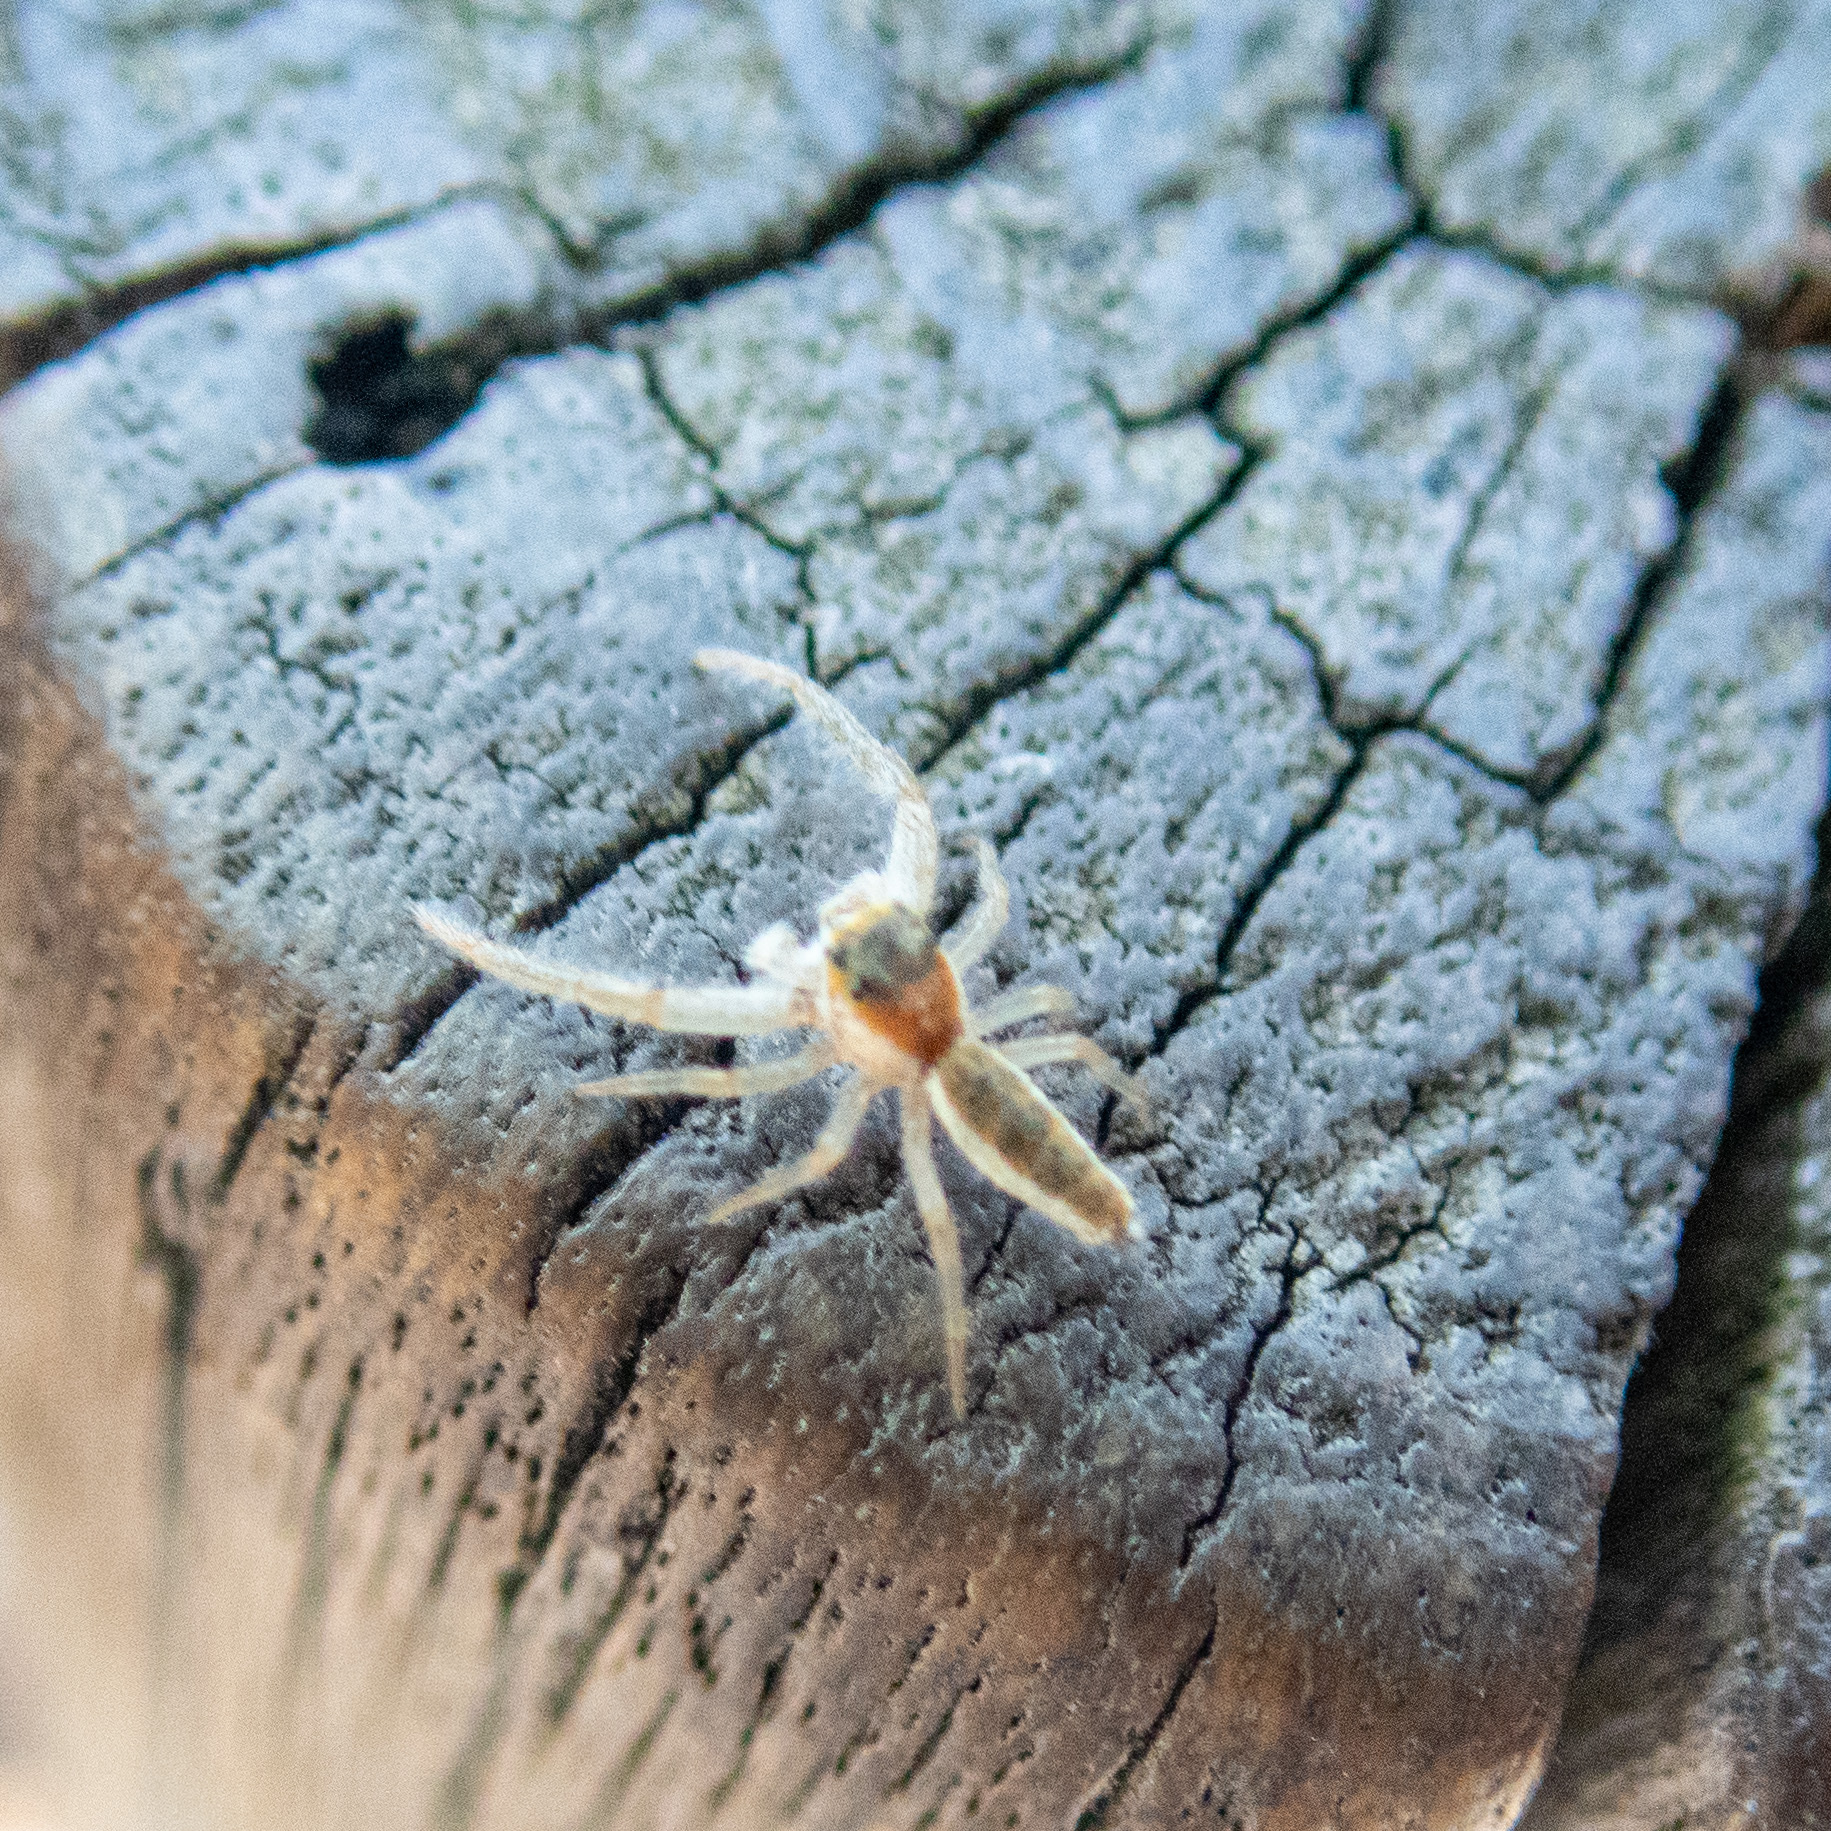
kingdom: Animalia
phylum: Arthropoda
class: Arachnida
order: Araneae
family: Salticidae
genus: Hentzia
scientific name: Hentzia mitrata
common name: White-jawed jumping spider
